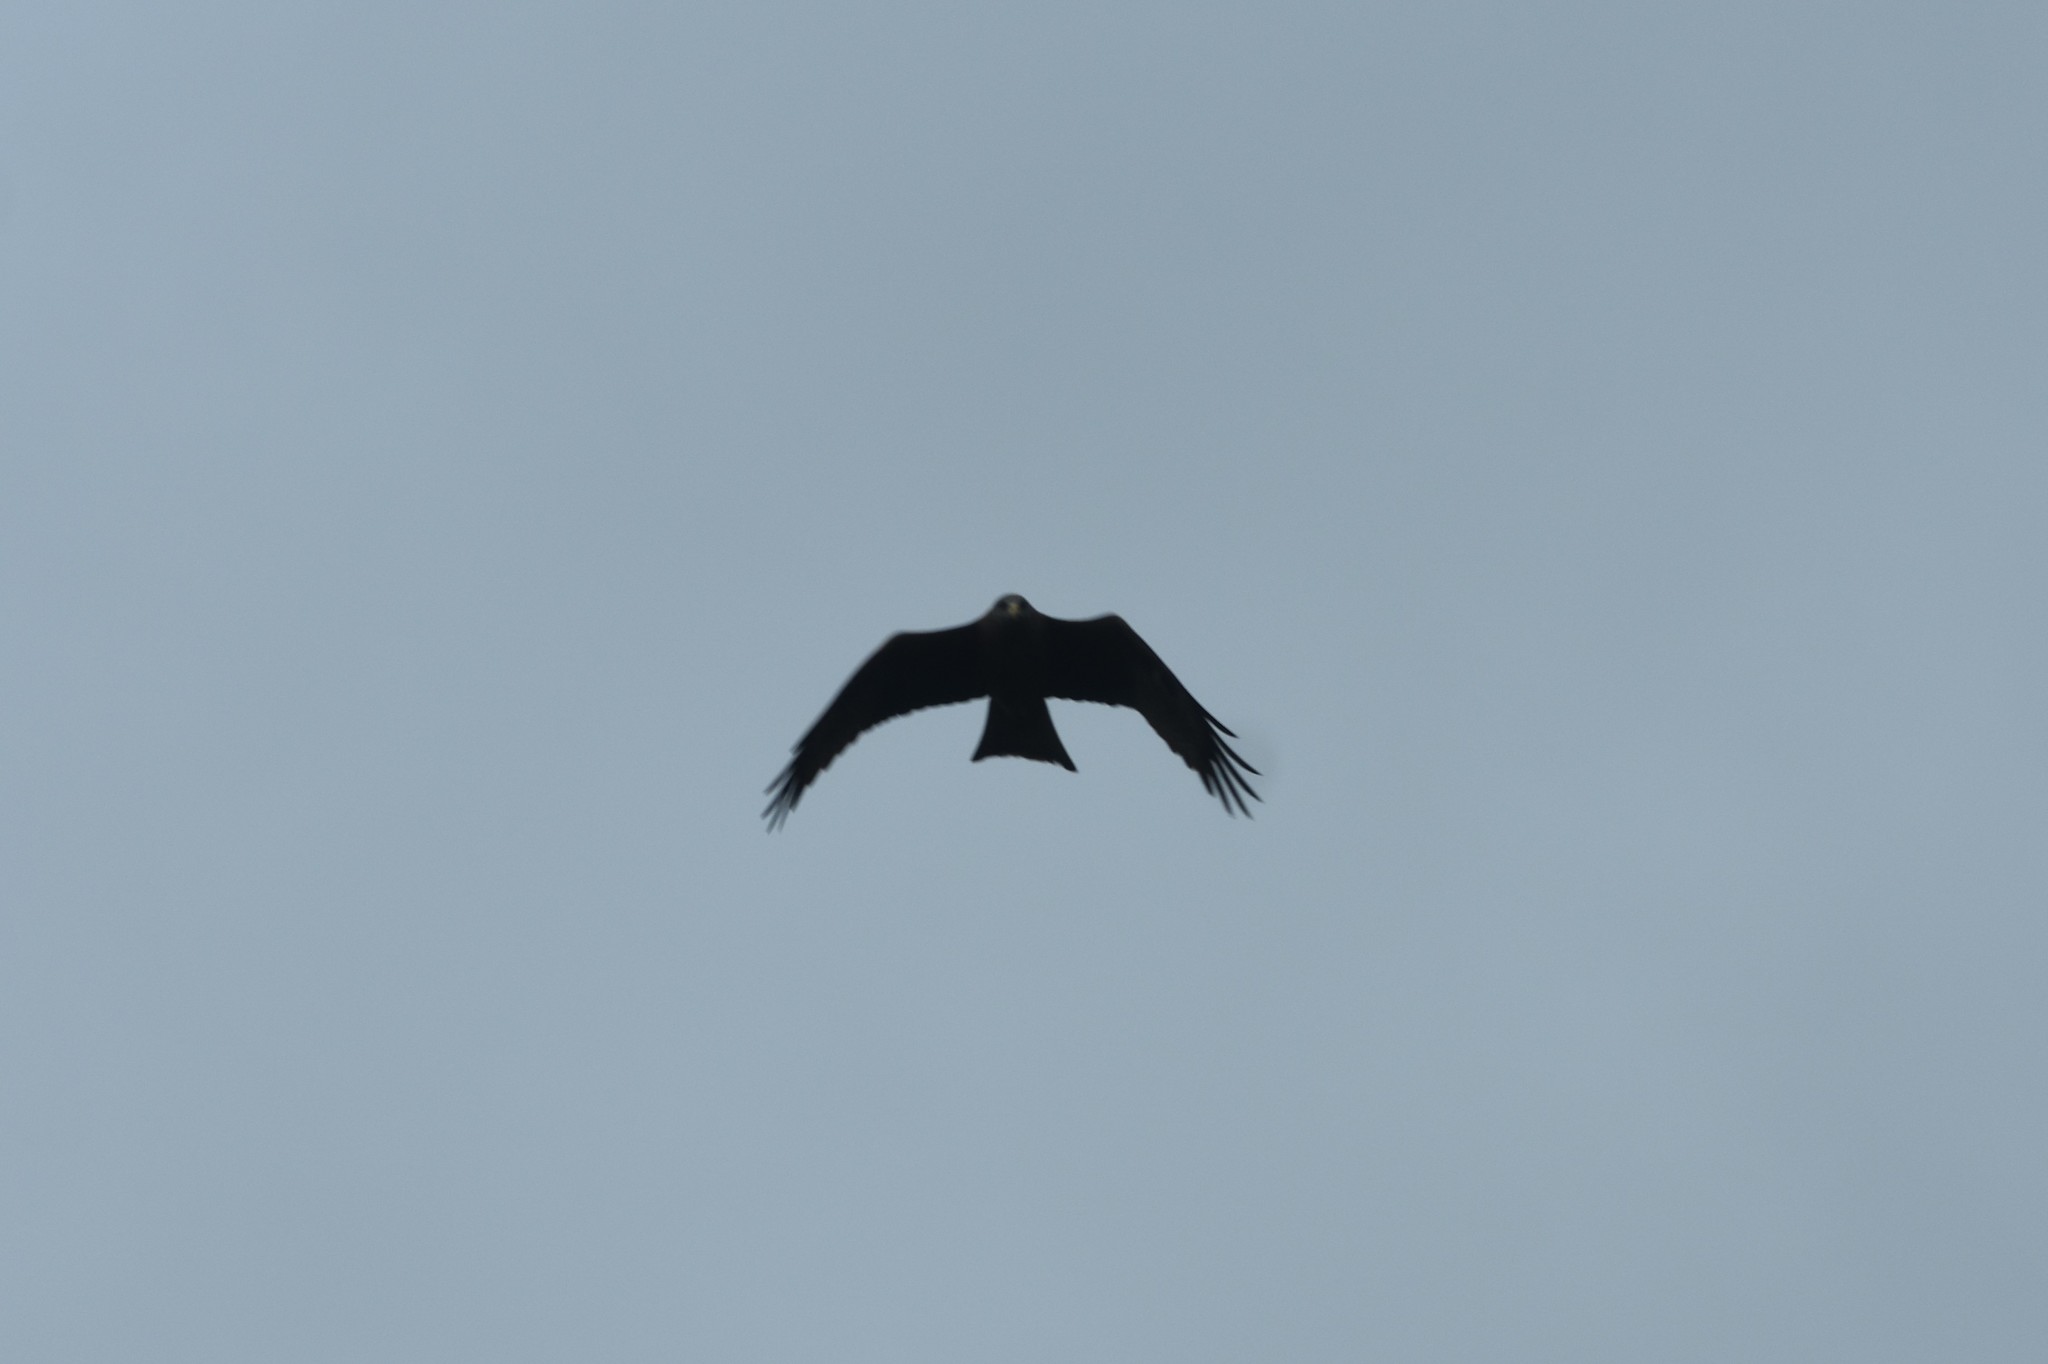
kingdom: Animalia
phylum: Chordata
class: Aves
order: Accipitriformes
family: Accipitridae
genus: Milvus
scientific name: Milvus migrans
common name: Black kite
